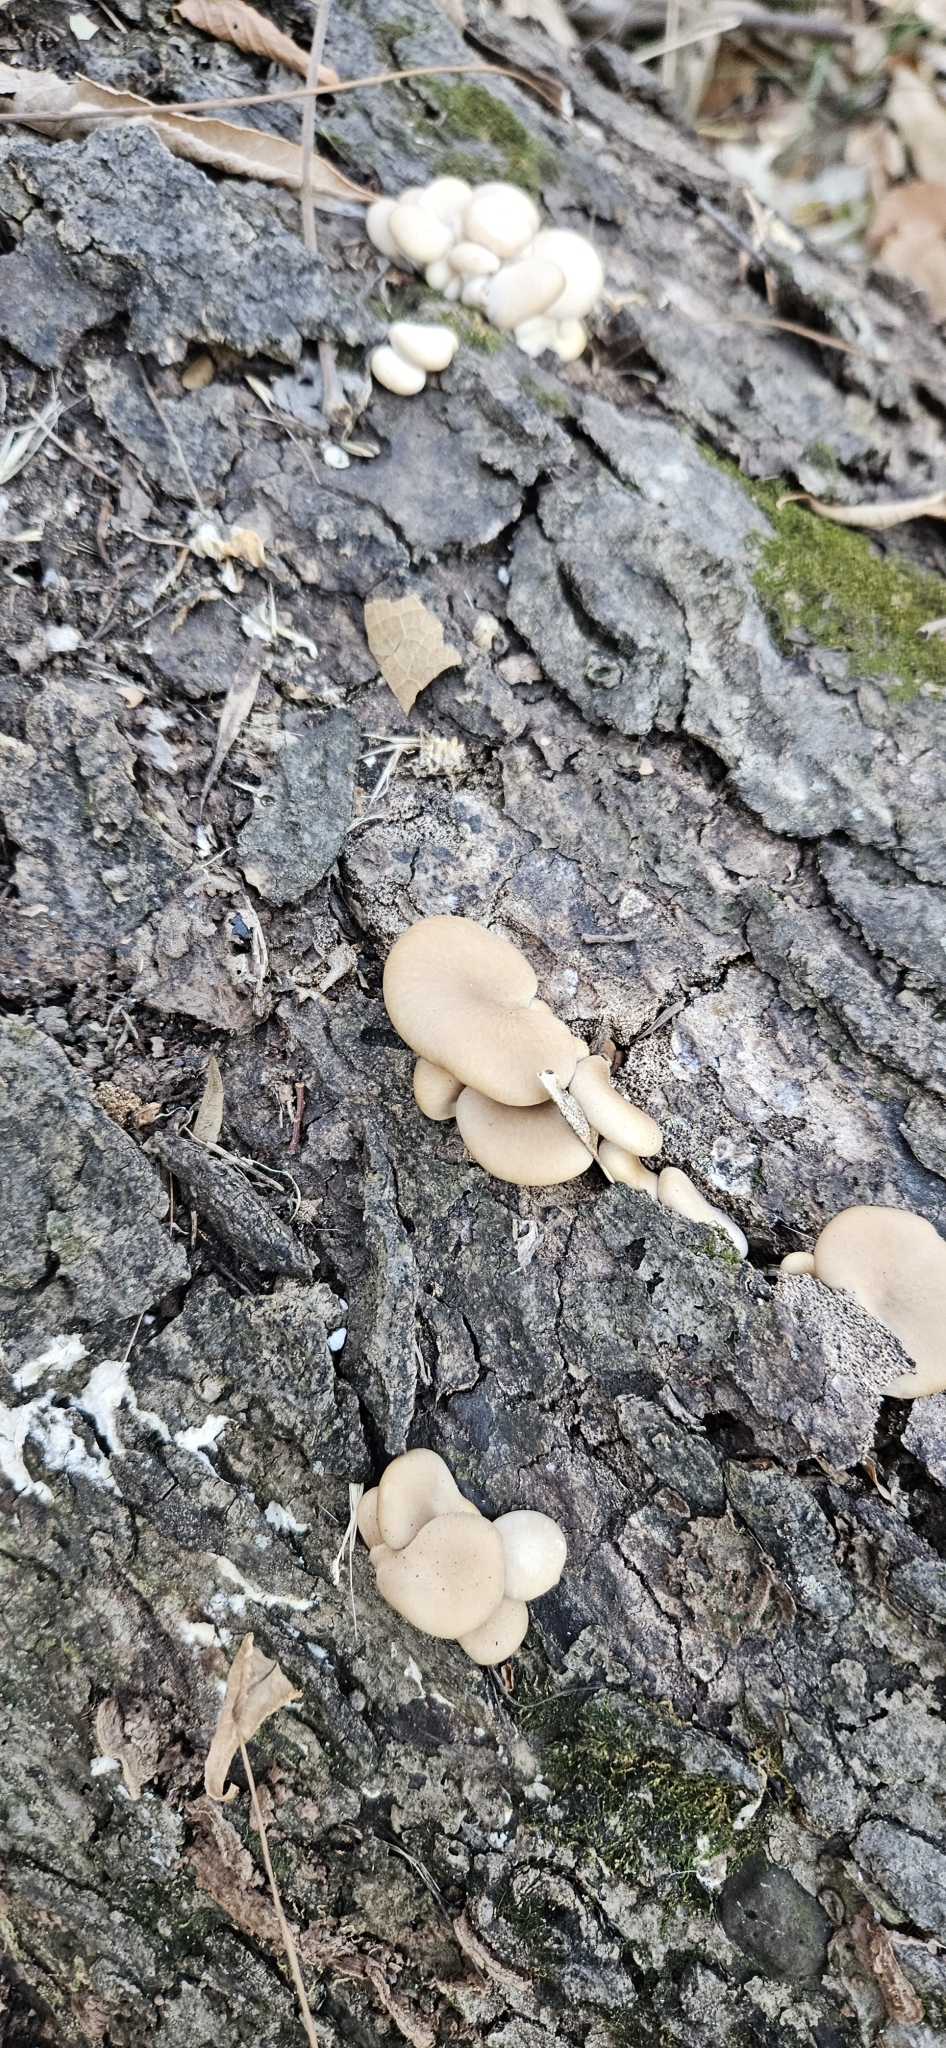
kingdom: Fungi
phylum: Basidiomycota
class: Agaricomycetes
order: Agaricales
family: Pleurotaceae
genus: Pleurotus
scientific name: Pleurotus ostreatus
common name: Oyster mushroom
